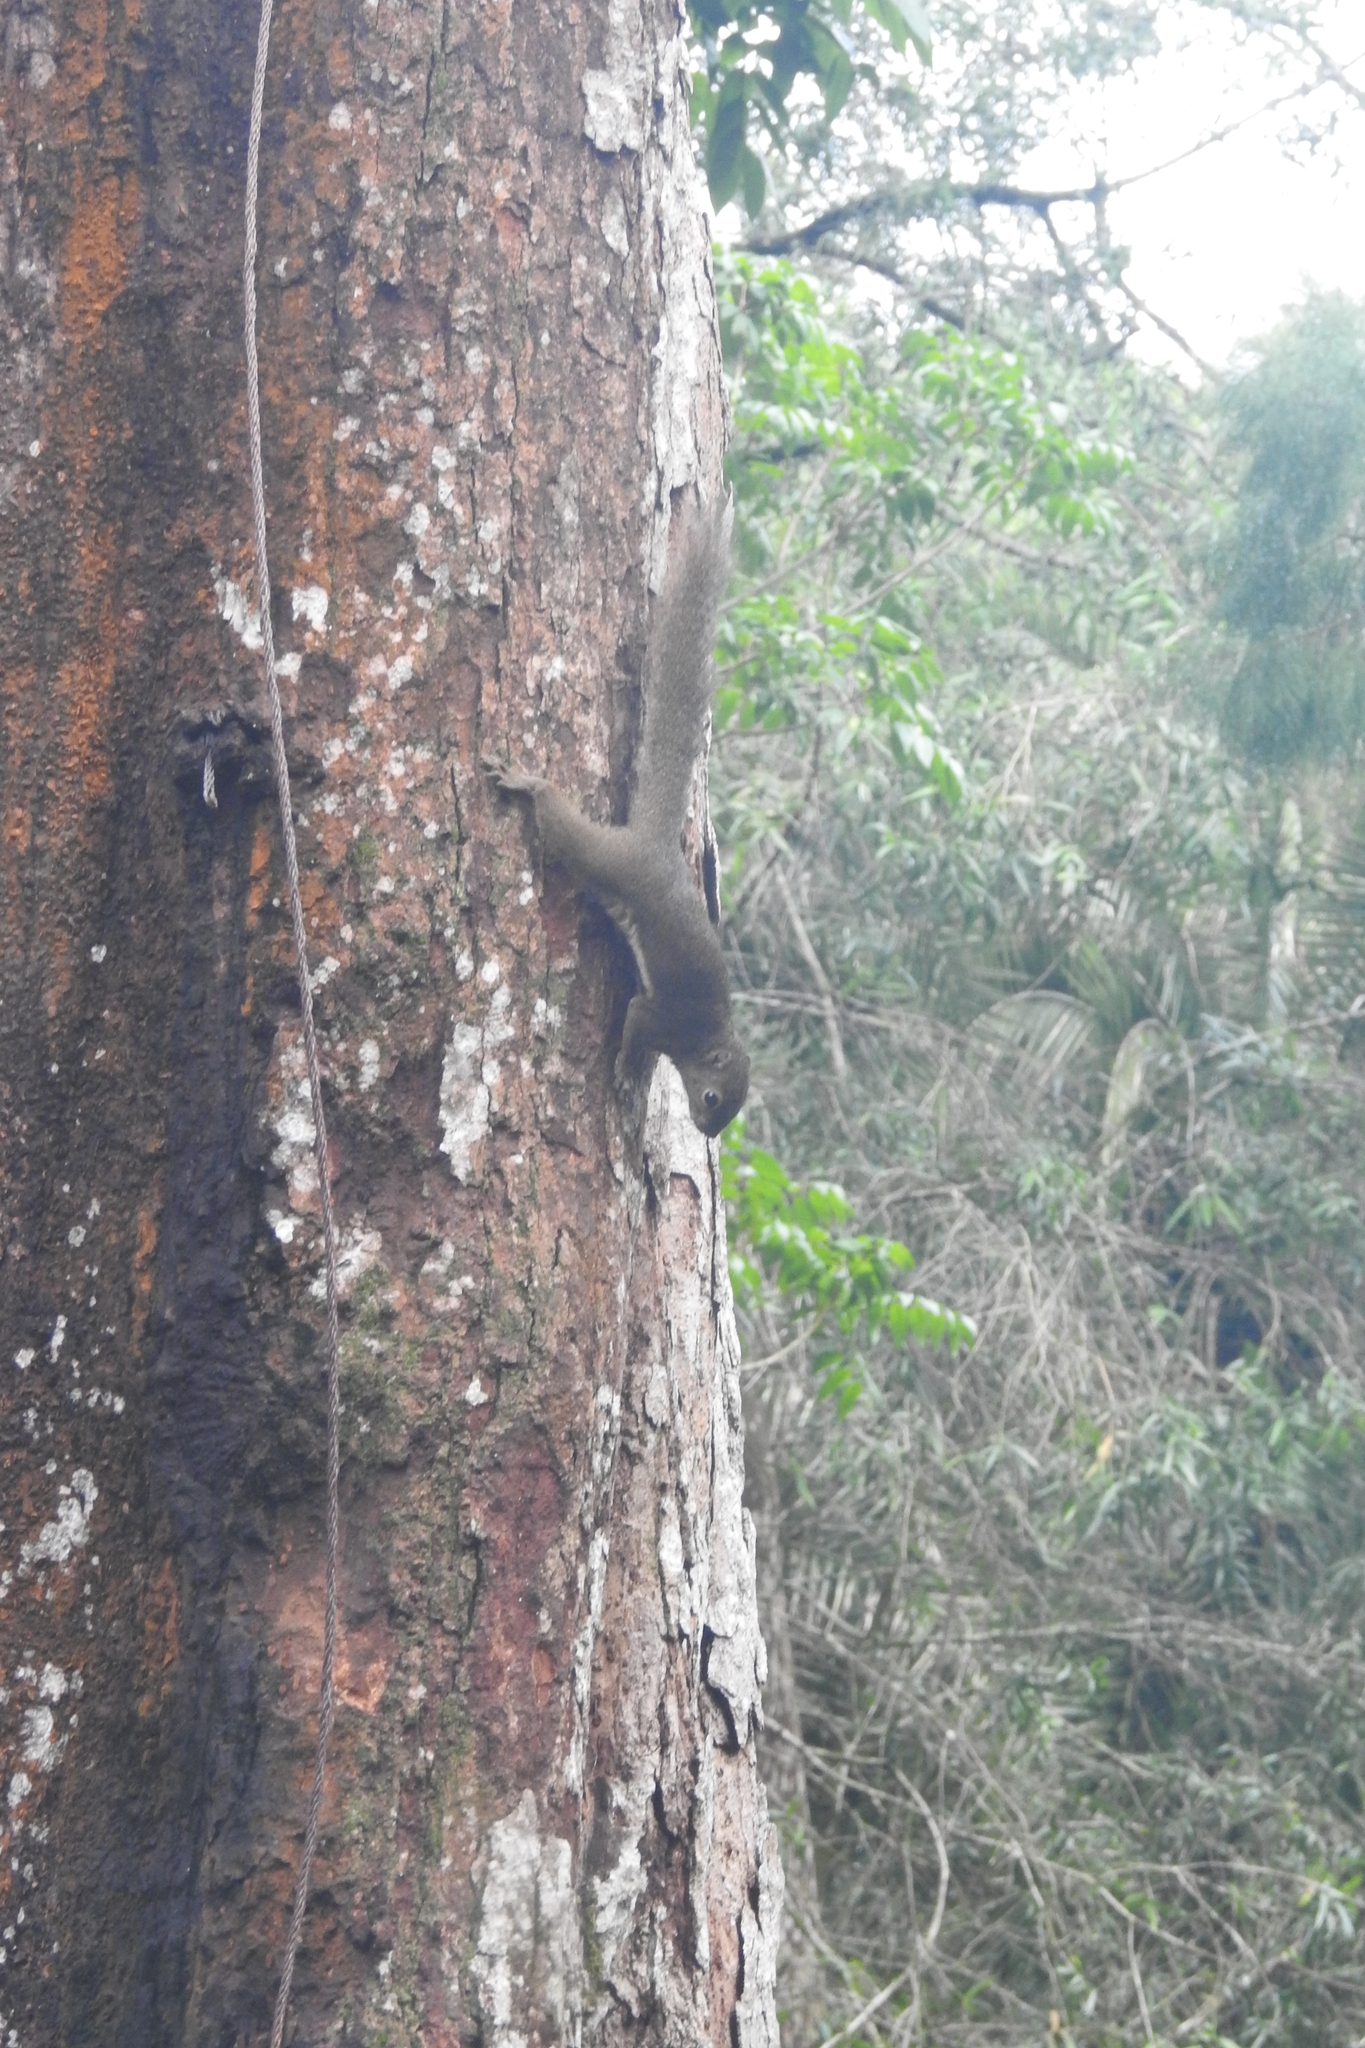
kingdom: Animalia
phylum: Chordata
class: Mammalia
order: Rodentia
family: Sciuridae
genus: Callosciurus
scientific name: Callosciurus notatus
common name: Plantain squirrel
